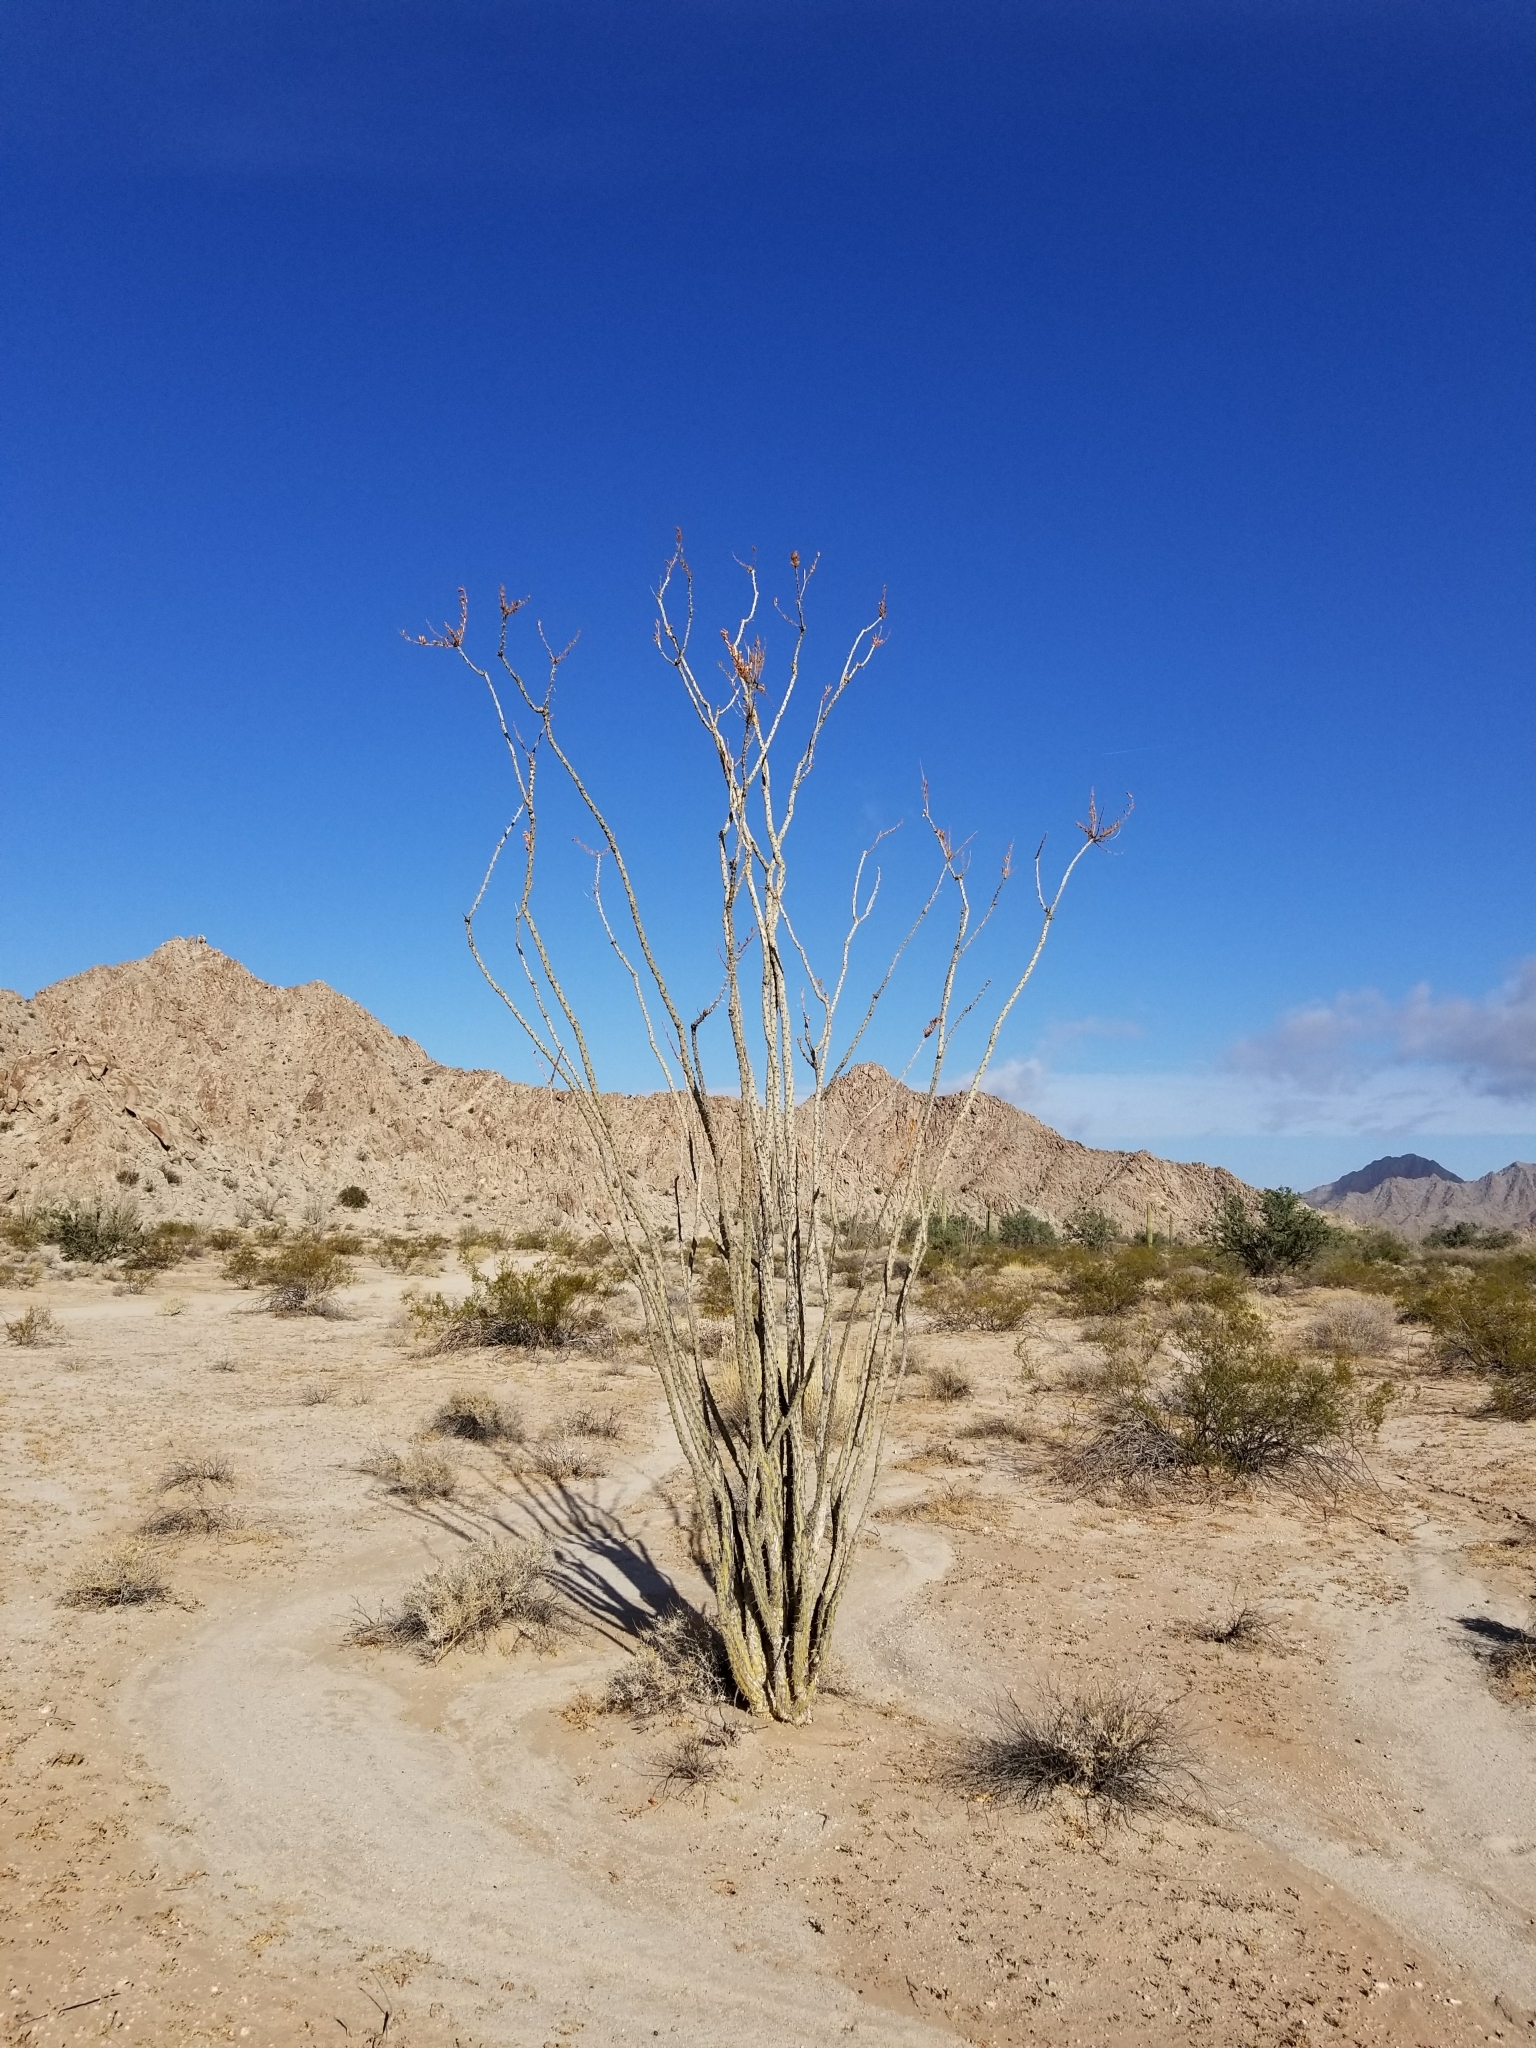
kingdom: Plantae
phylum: Tracheophyta
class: Magnoliopsida
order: Ericales
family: Fouquieriaceae
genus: Fouquieria
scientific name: Fouquieria splendens
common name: Vine-cactus
